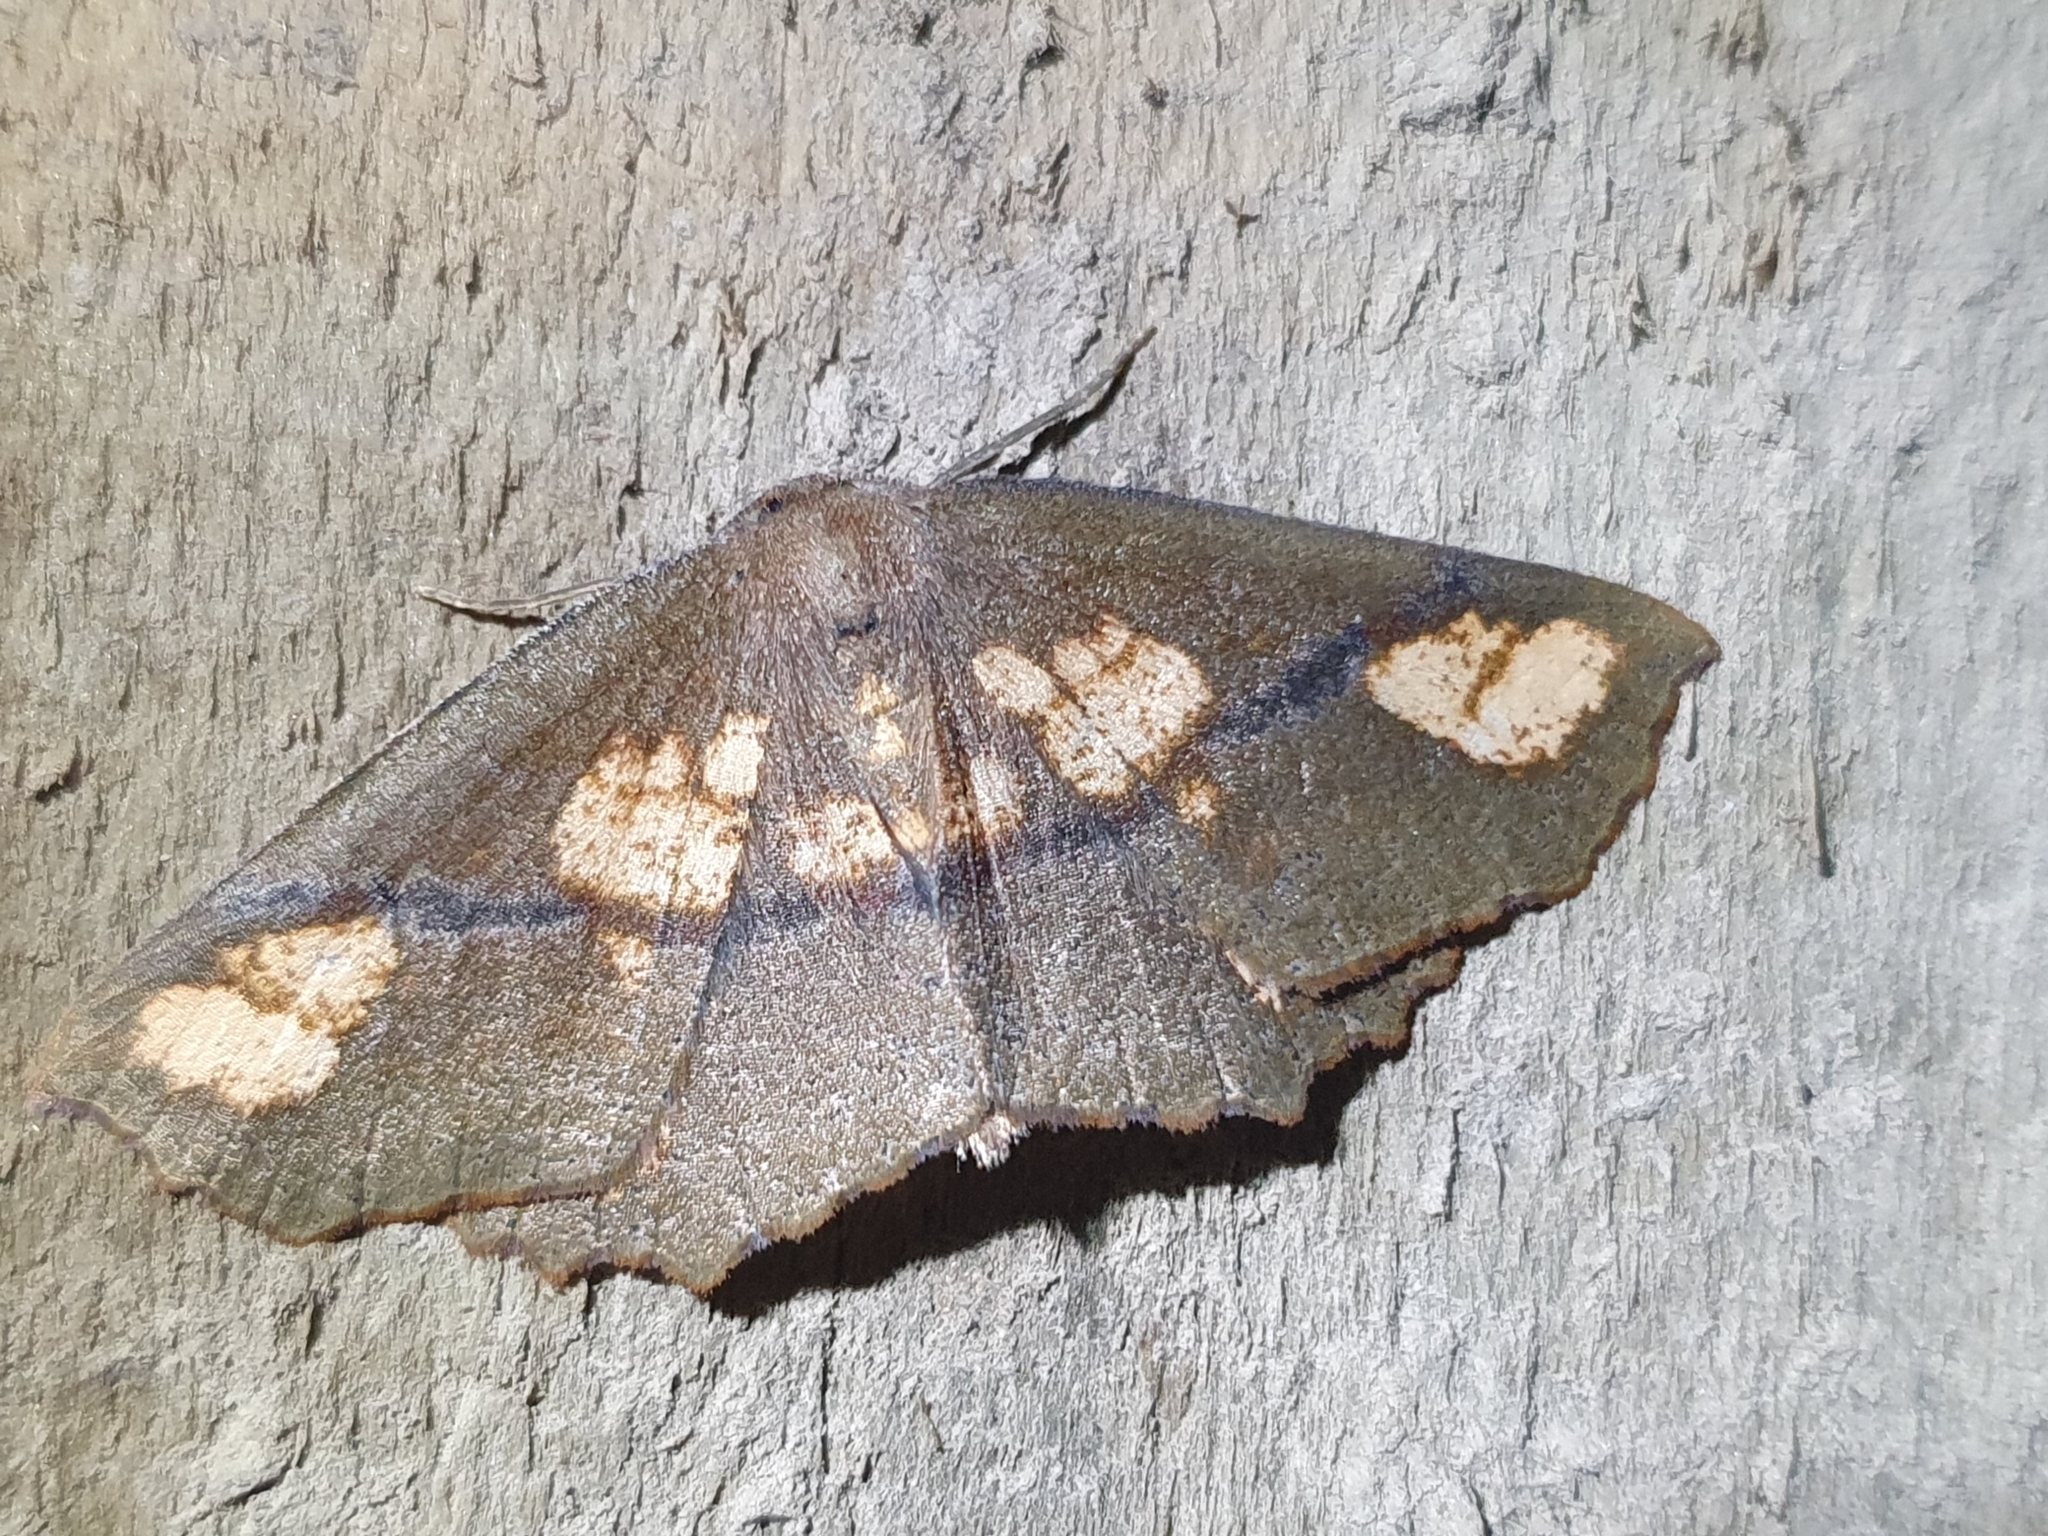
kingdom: Animalia
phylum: Arthropoda
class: Insecta
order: Lepidoptera
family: Geometridae
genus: Xyridacma
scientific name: Xyridacma ustaria
